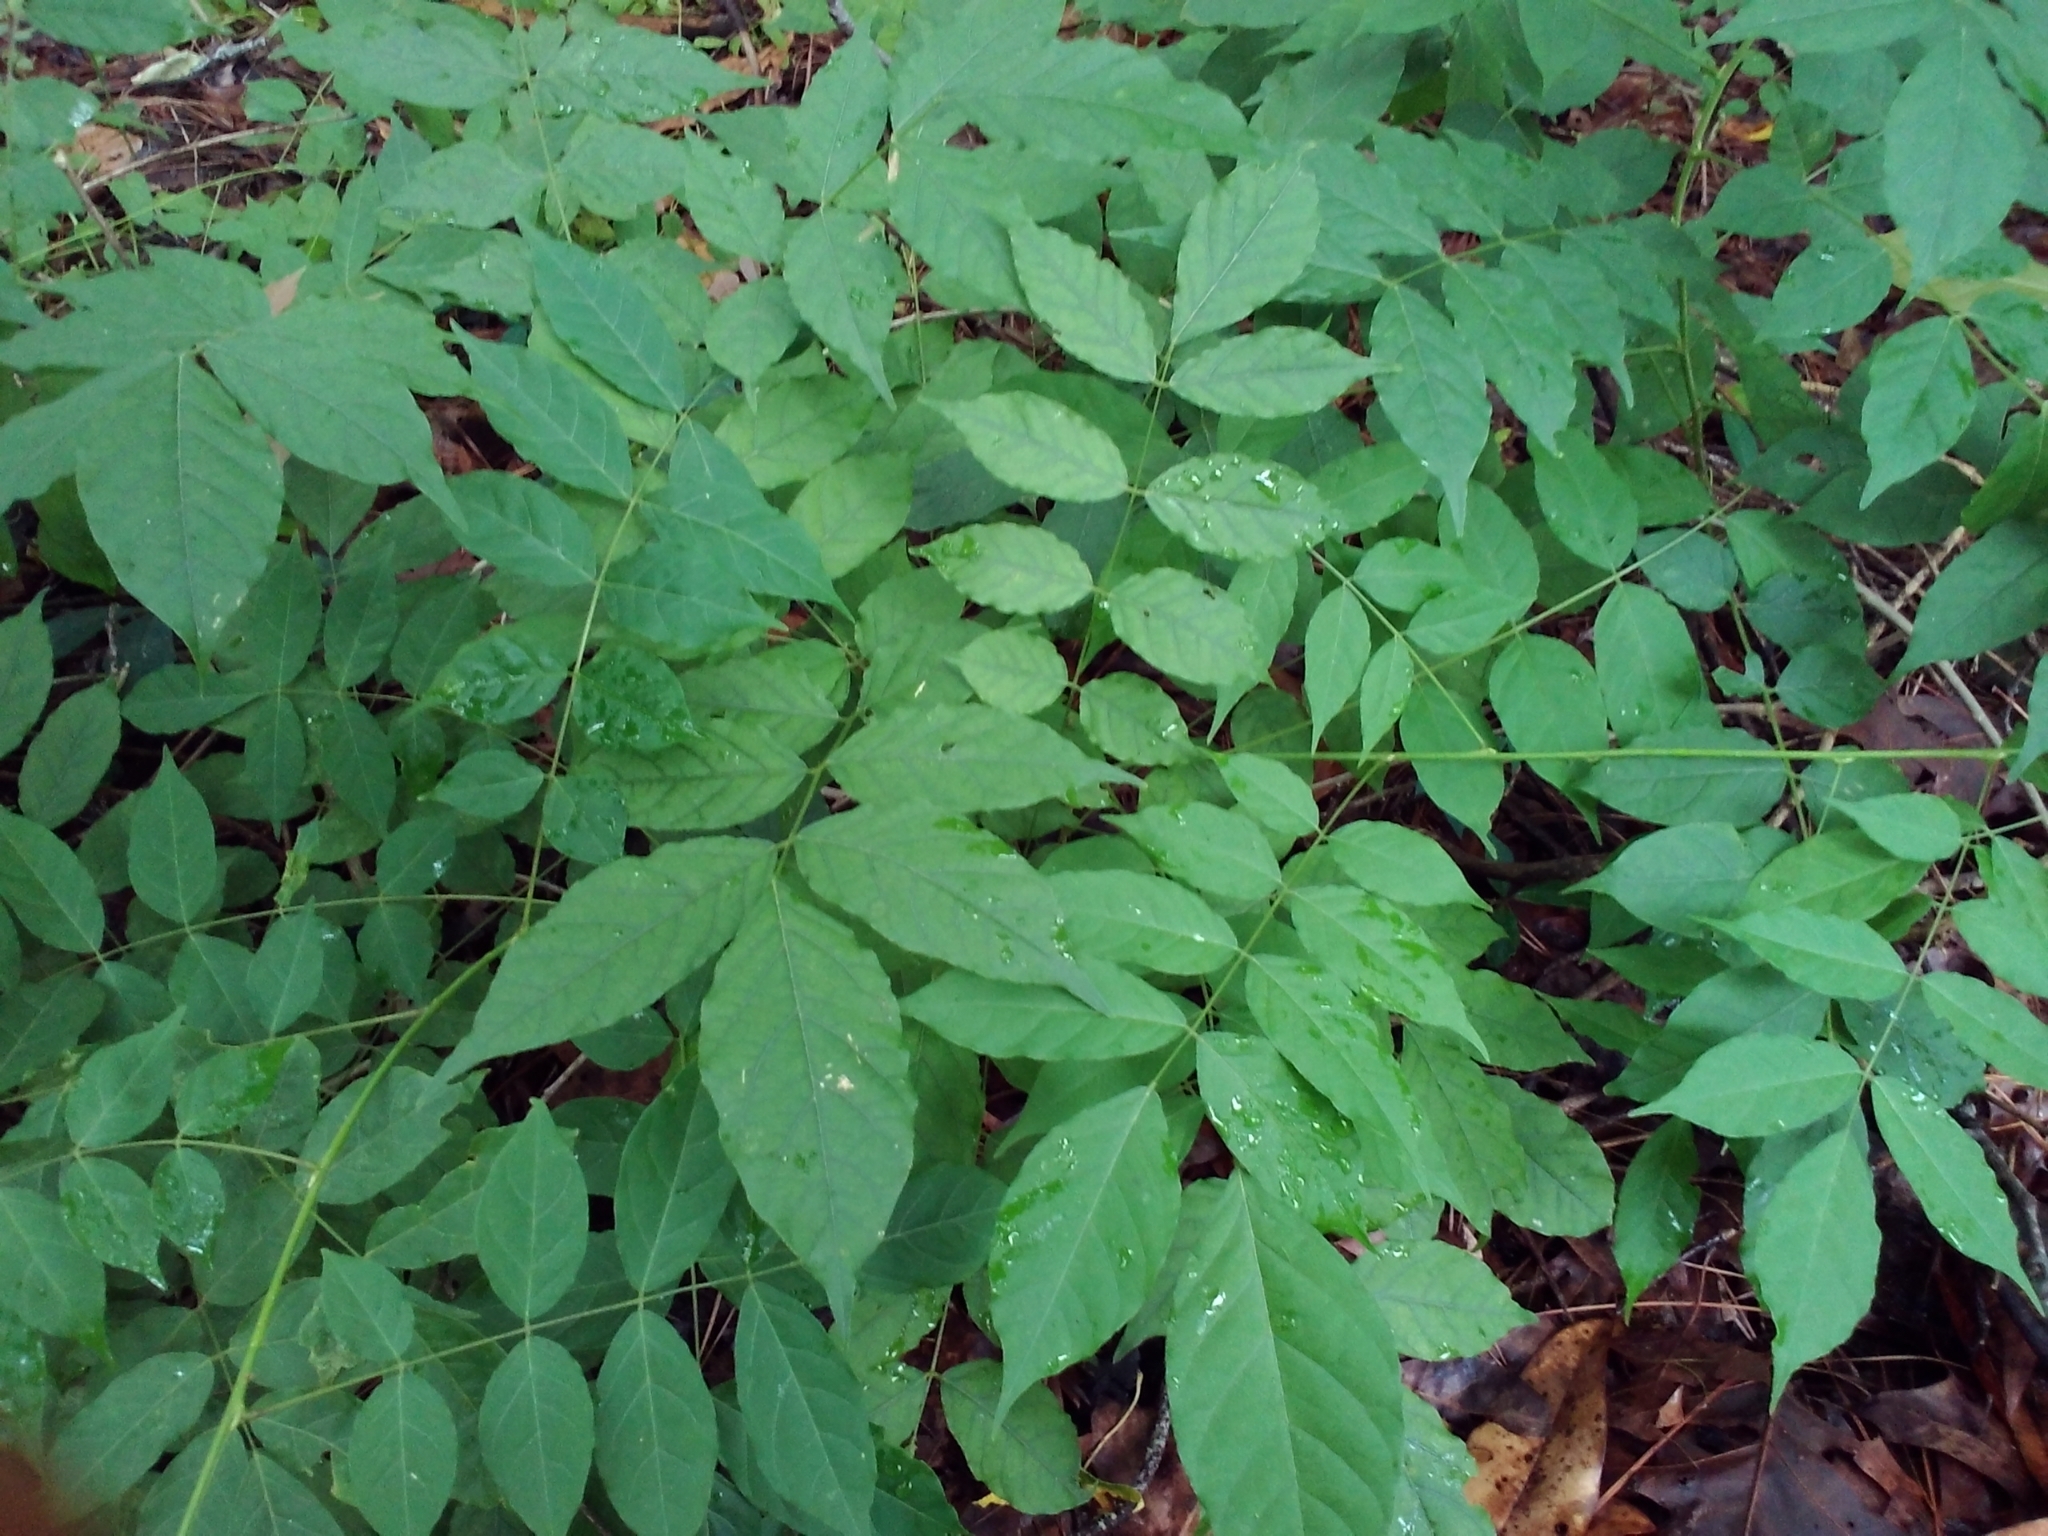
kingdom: Plantae
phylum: Tracheophyta
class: Magnoliopsida
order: Fabales
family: Fabaceae
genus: Wisteria
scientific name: Wisteria sinensis
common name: Chinese wisteria
